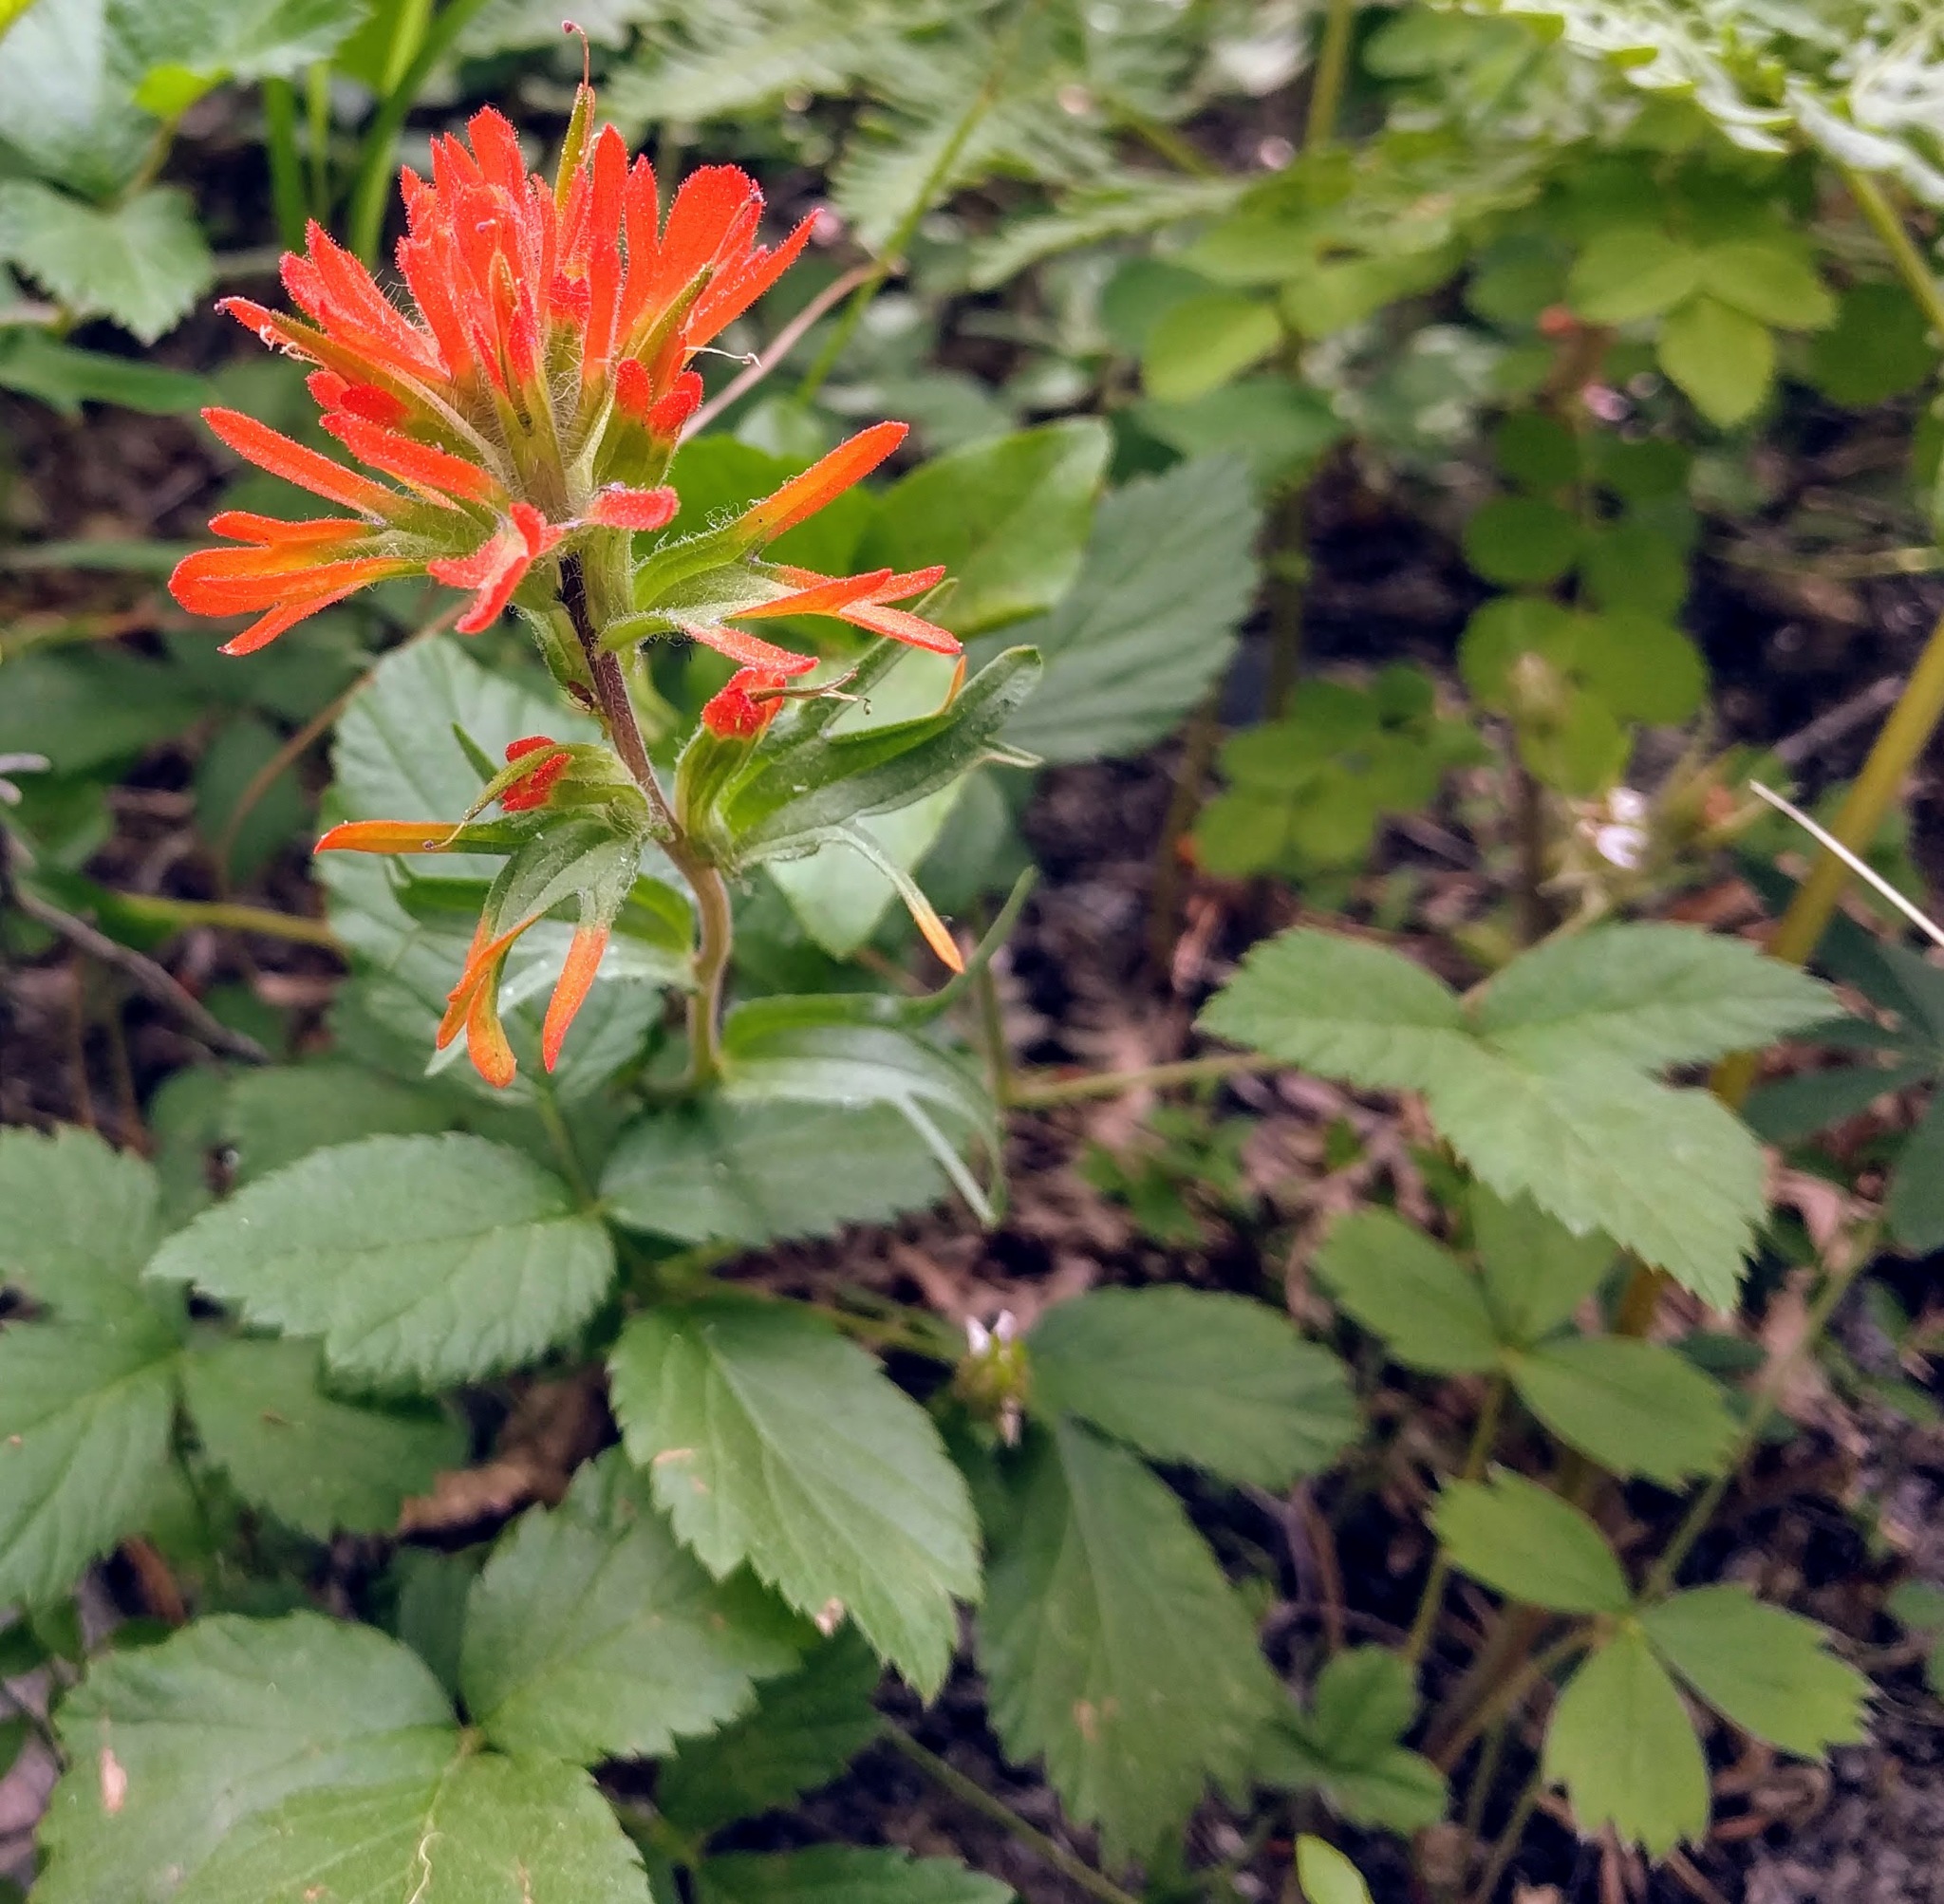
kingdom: Plantae
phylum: Tracheophyta
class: Magnoliopsida
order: Lamiales
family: Orobanchaceae
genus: Castilleja
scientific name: Castilleja hispida
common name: Bristly paintbrush
